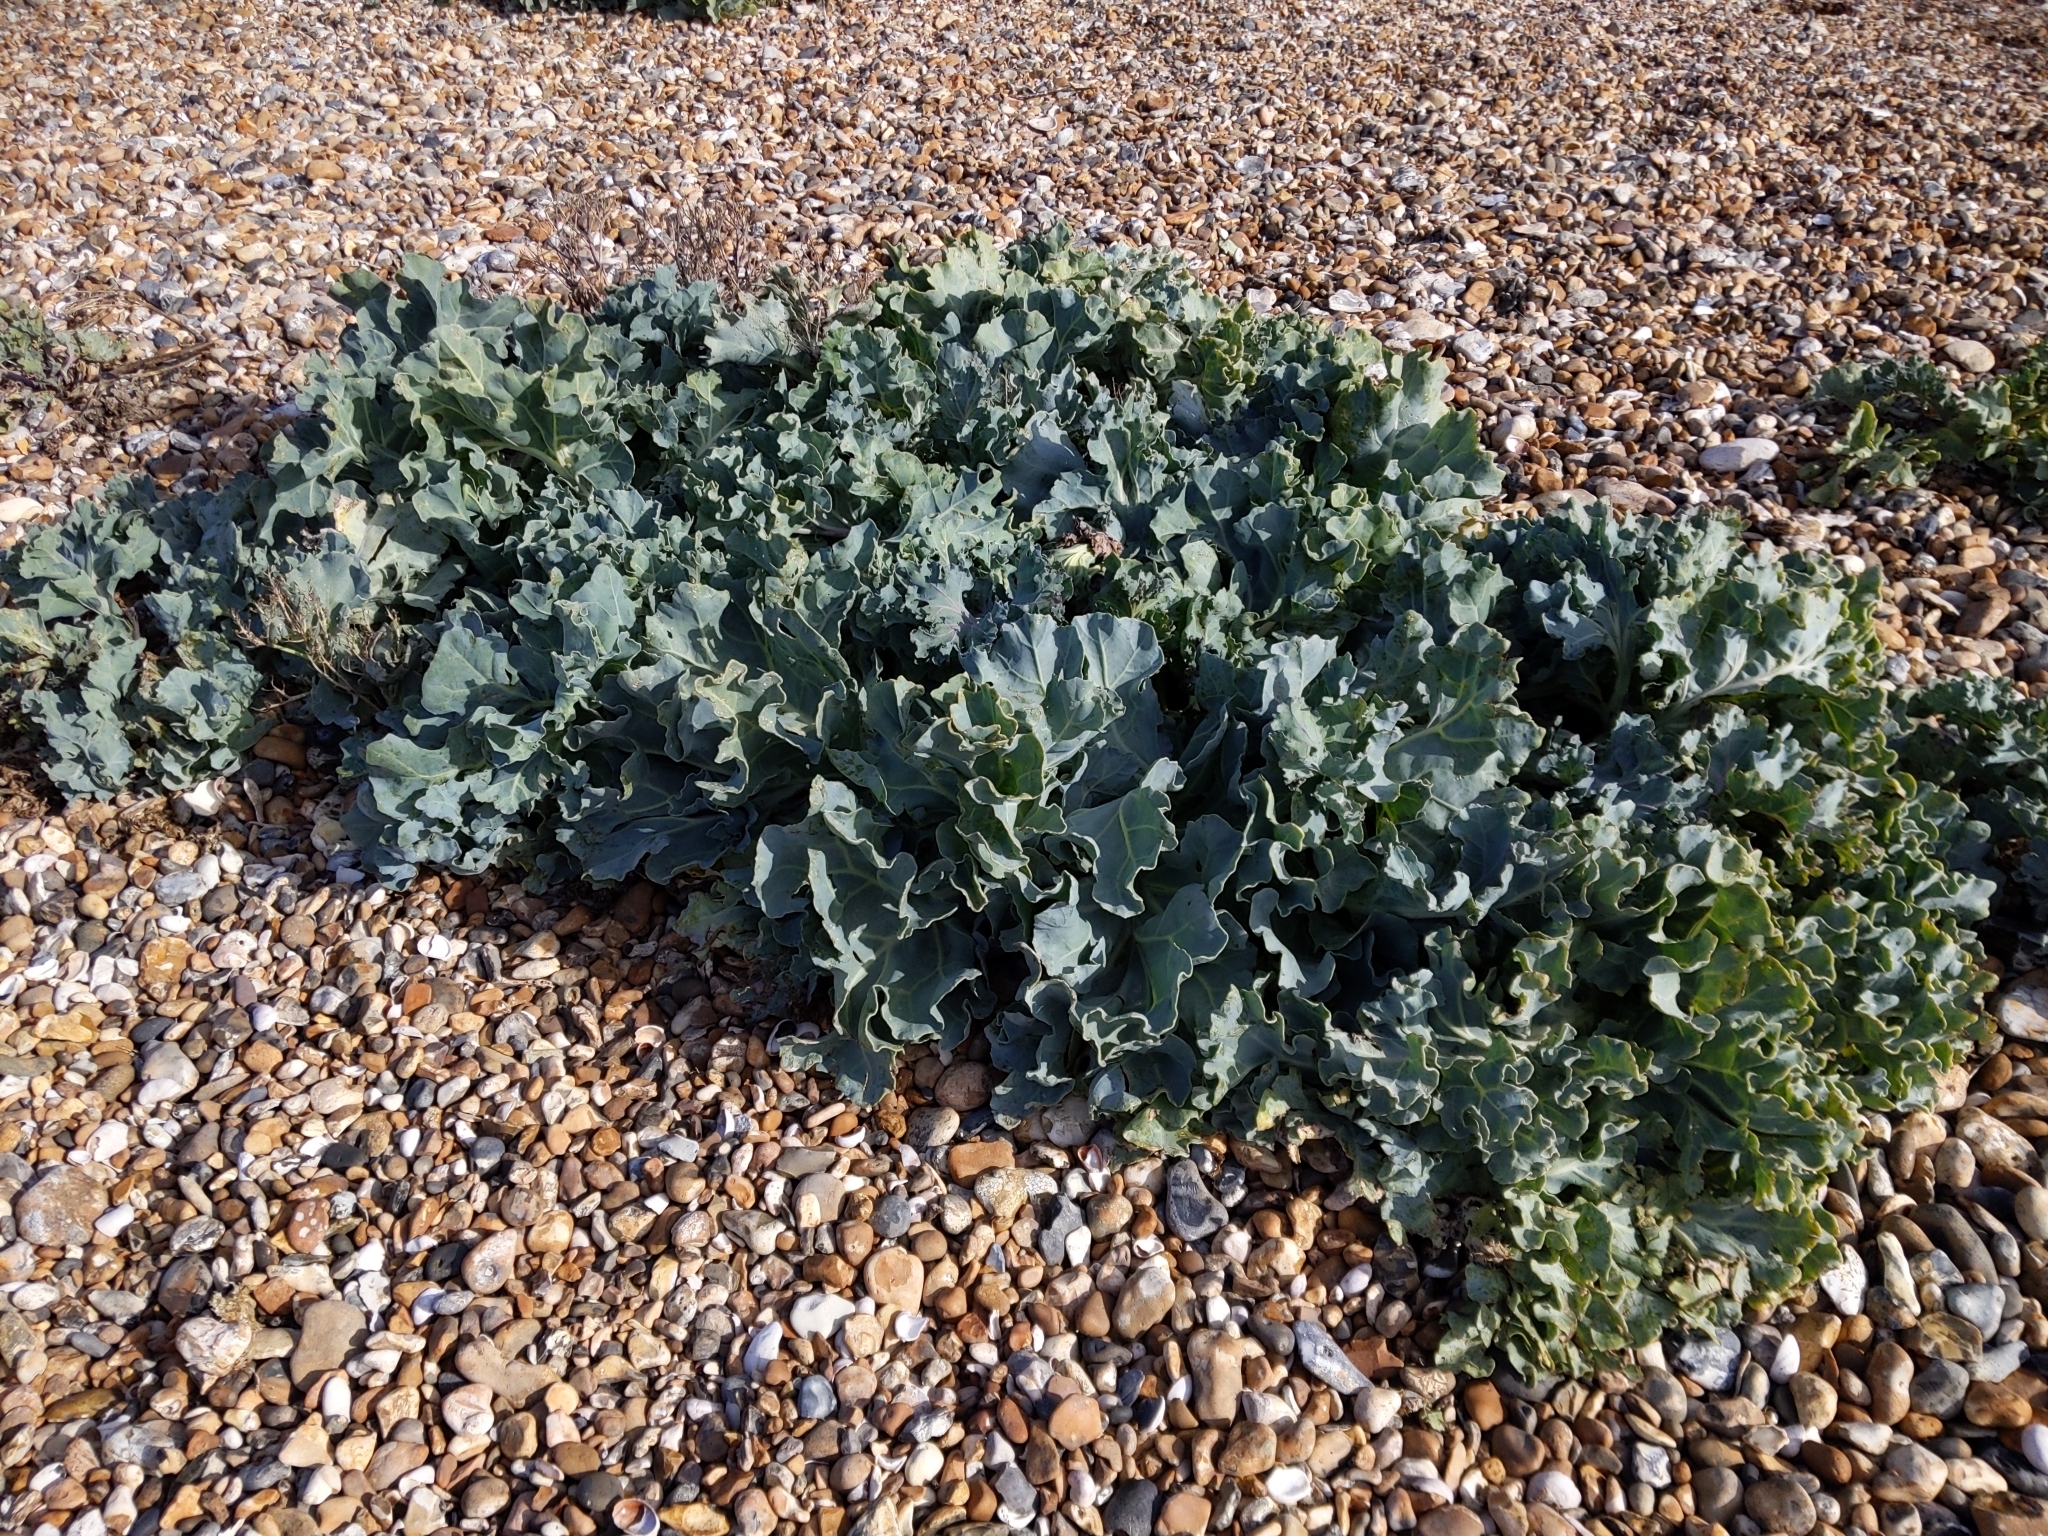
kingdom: Plantae
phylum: Tracheophyta
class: Magnoliopsida
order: Brassicales
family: Brassicaceae
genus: Crambe
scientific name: Crambe maritima
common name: Sea-kale
